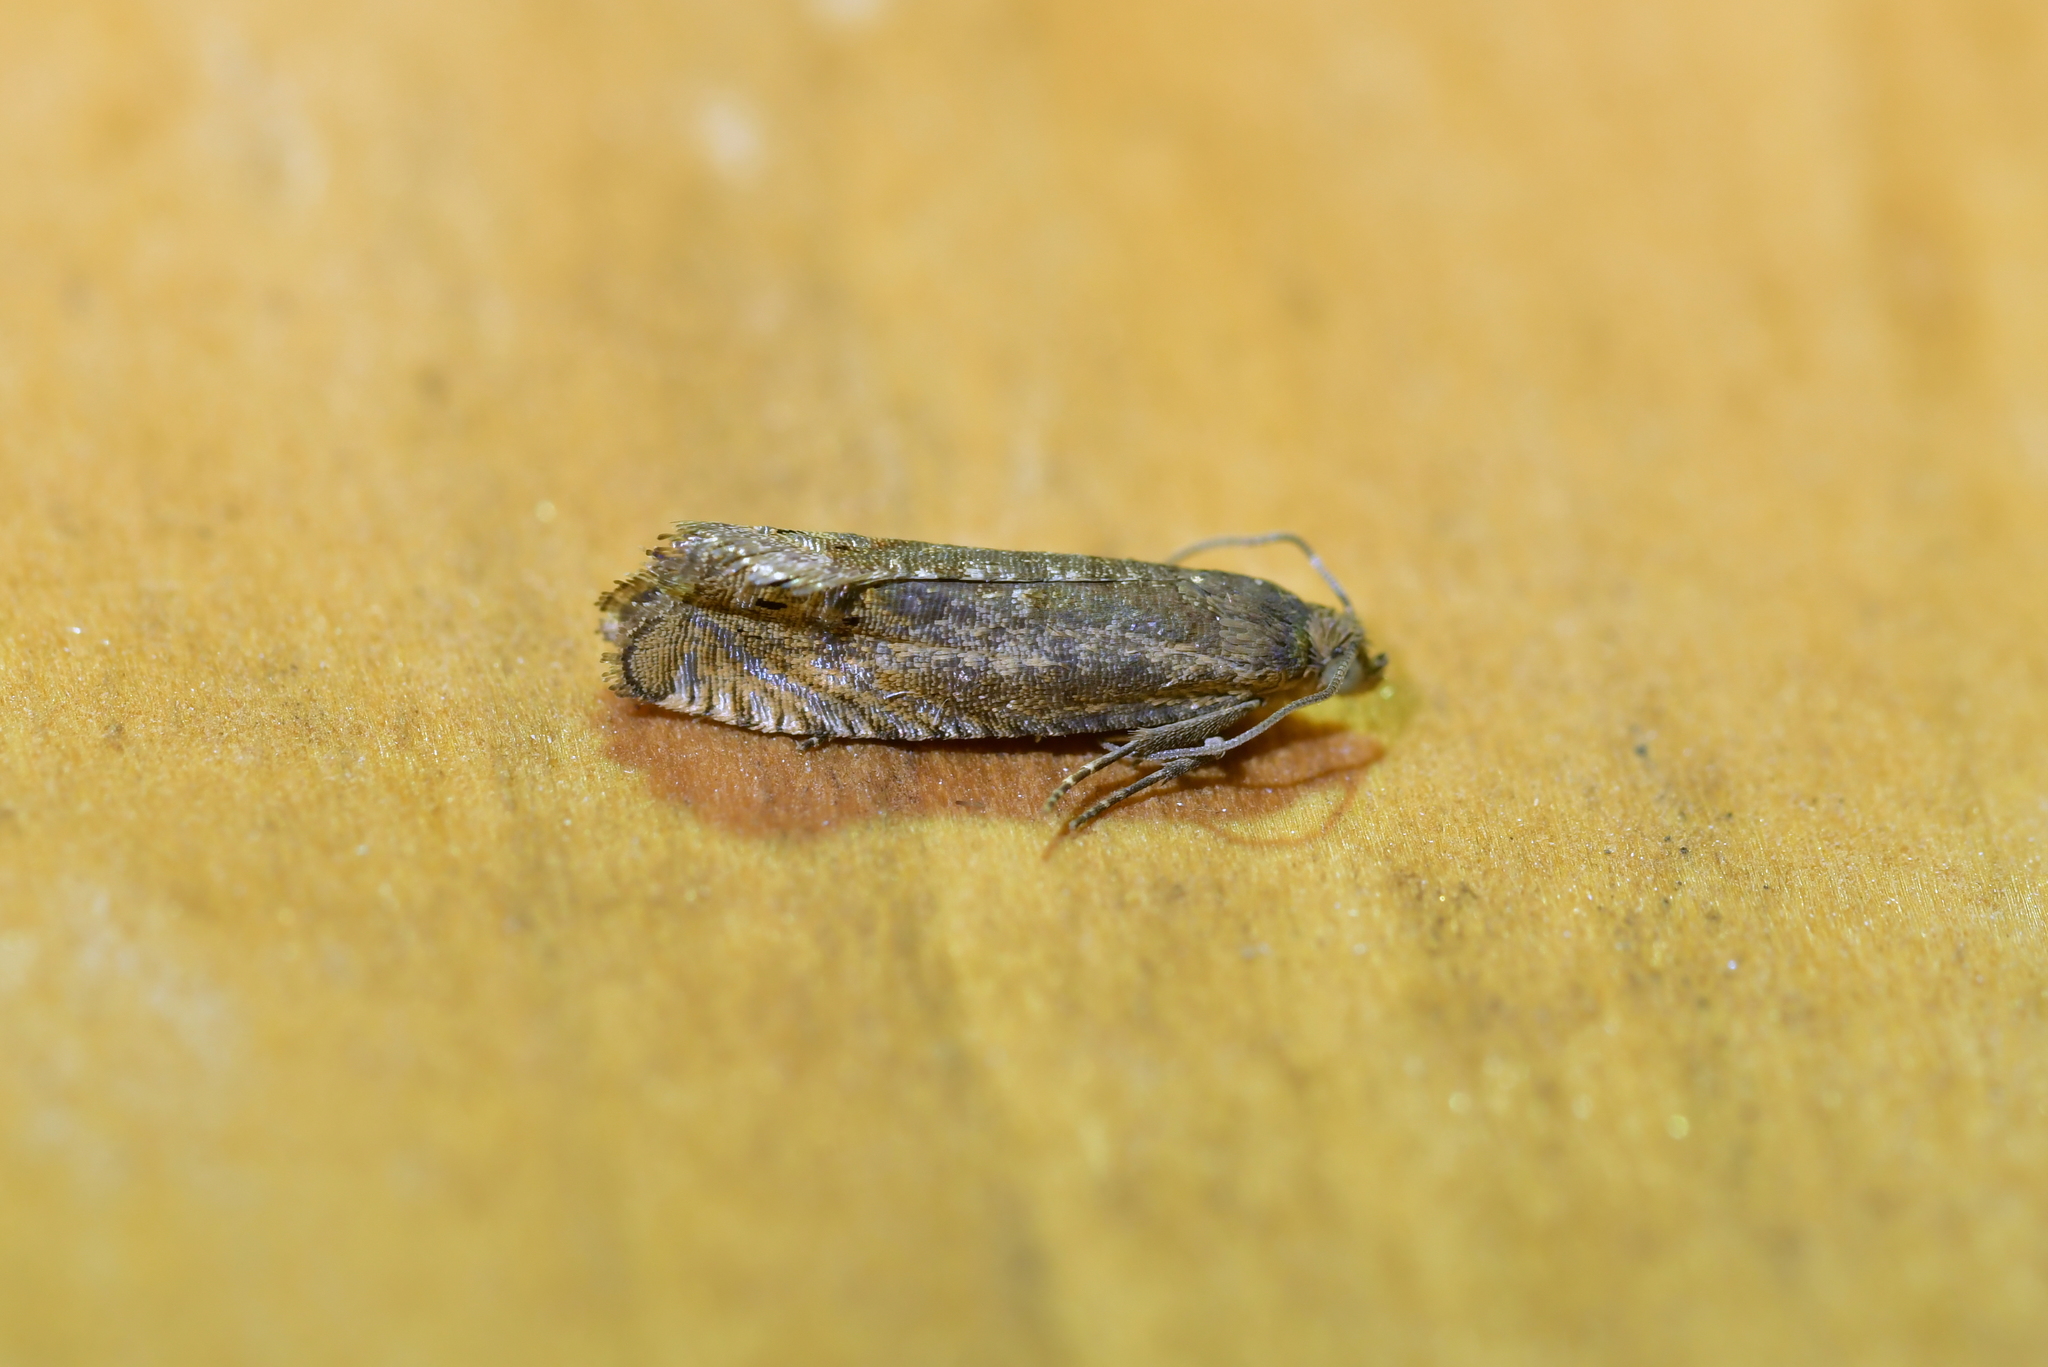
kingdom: Animalia
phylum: Arthropoda
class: Insecta
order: Lepidoptera
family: Tortricidae
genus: Cydia
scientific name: Cydia succedana
